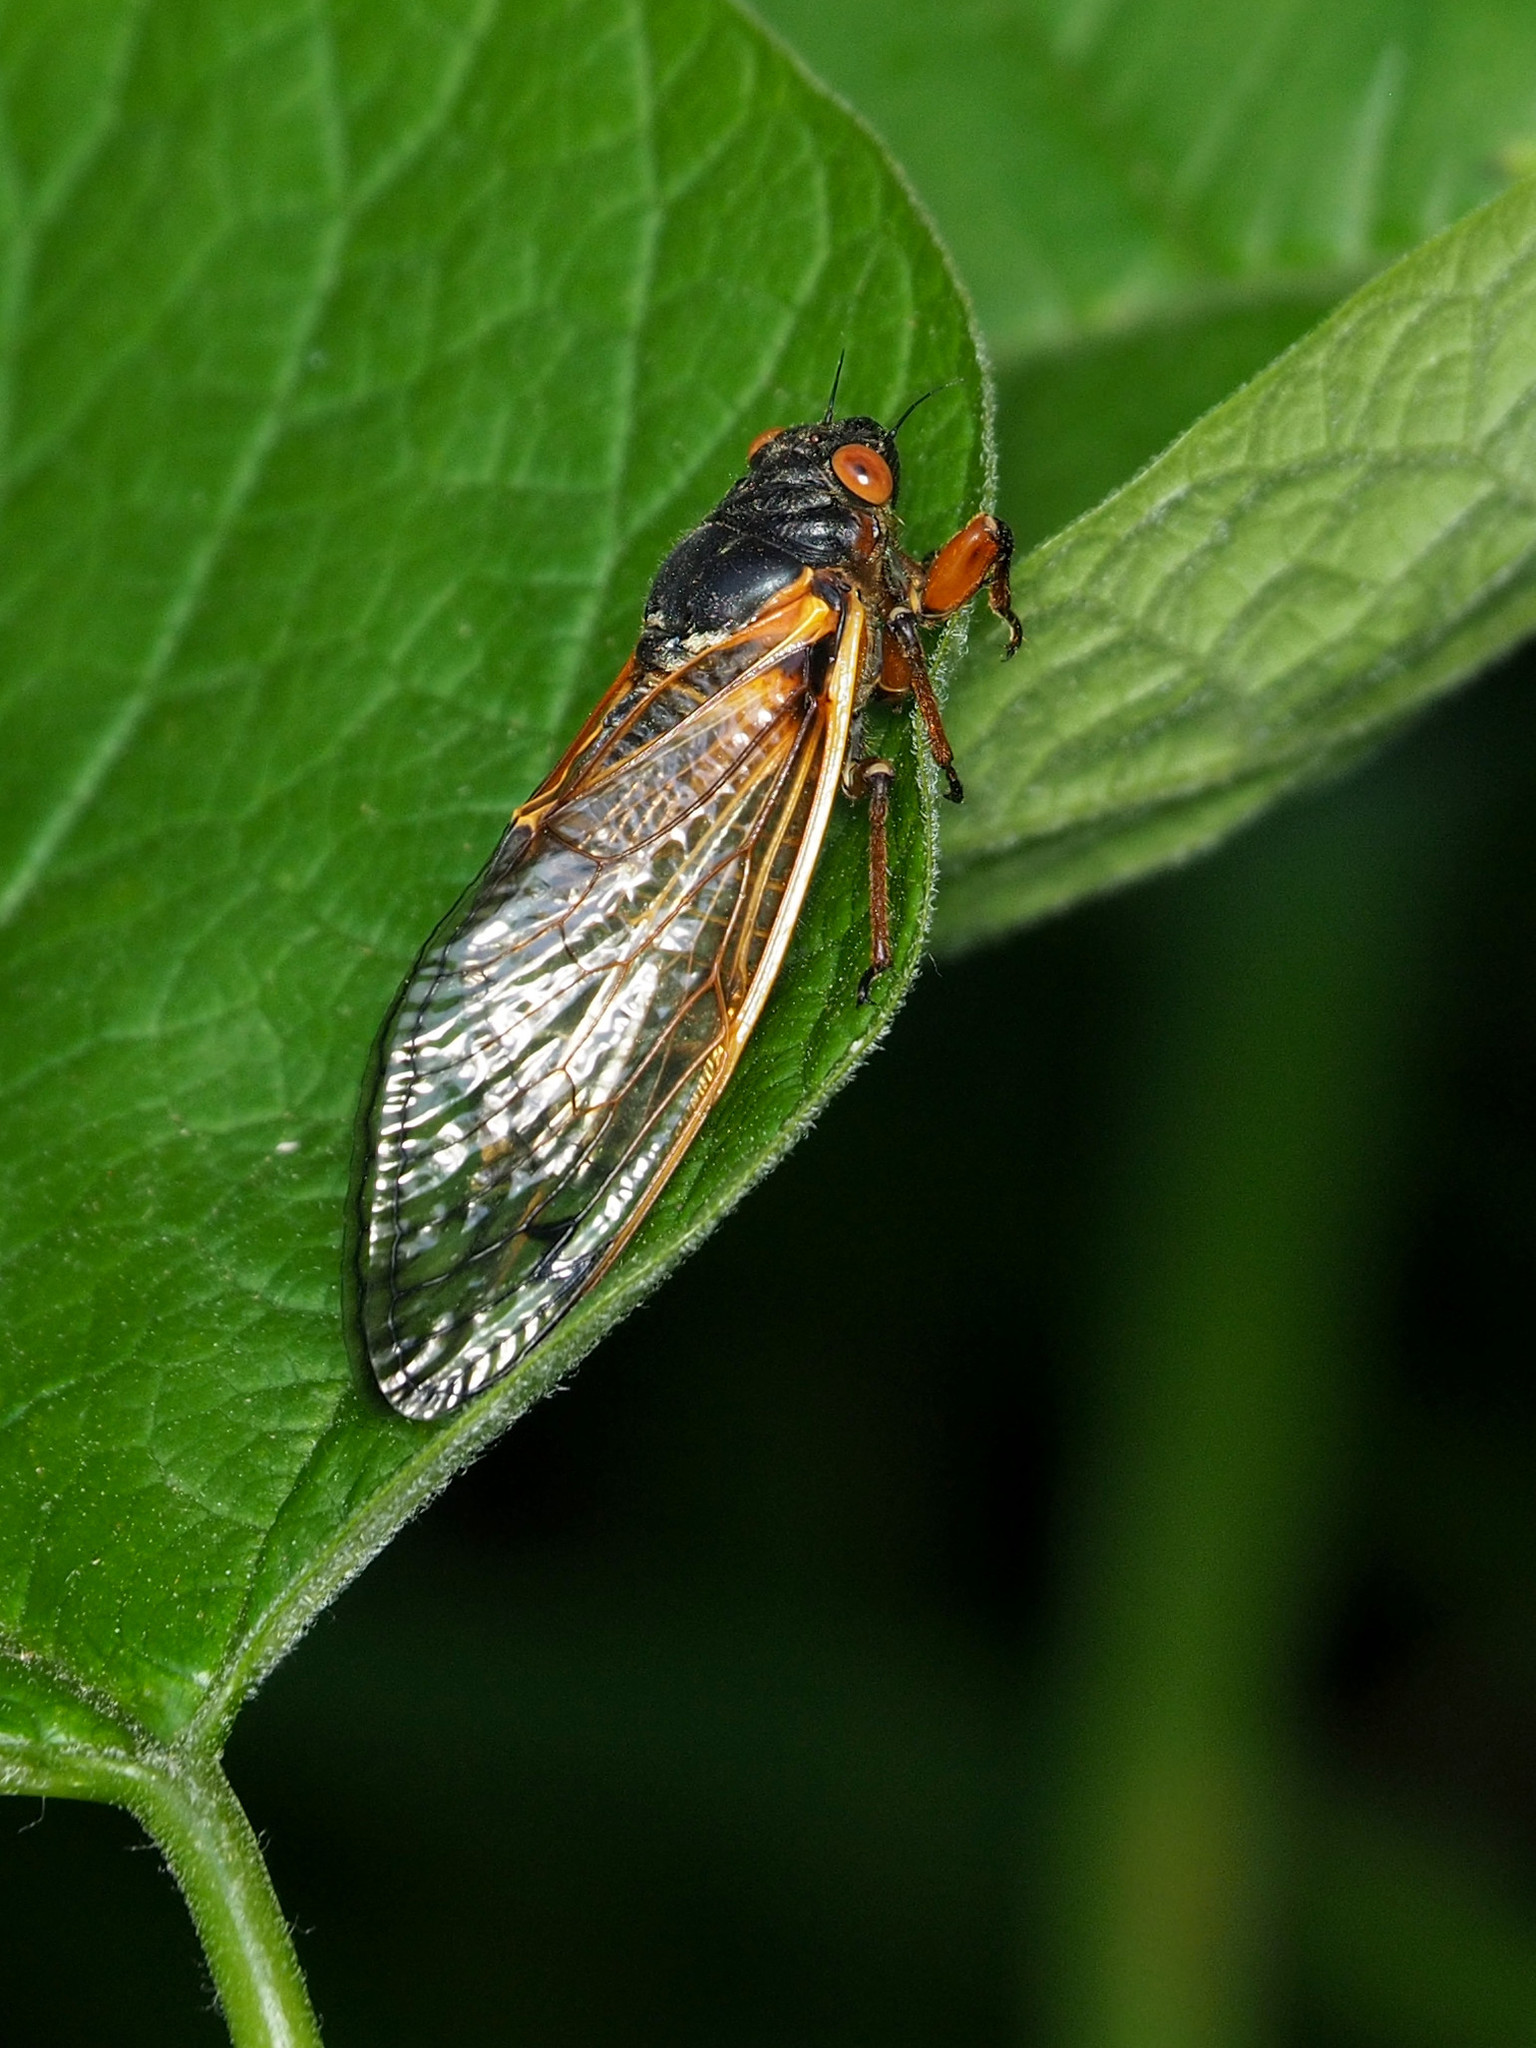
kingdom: Animalia
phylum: Arthropoda
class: Insecta
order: Hemiptera
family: Cicadidae
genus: Magicicada
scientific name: Magicicada septendecim
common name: Periodical cicada
